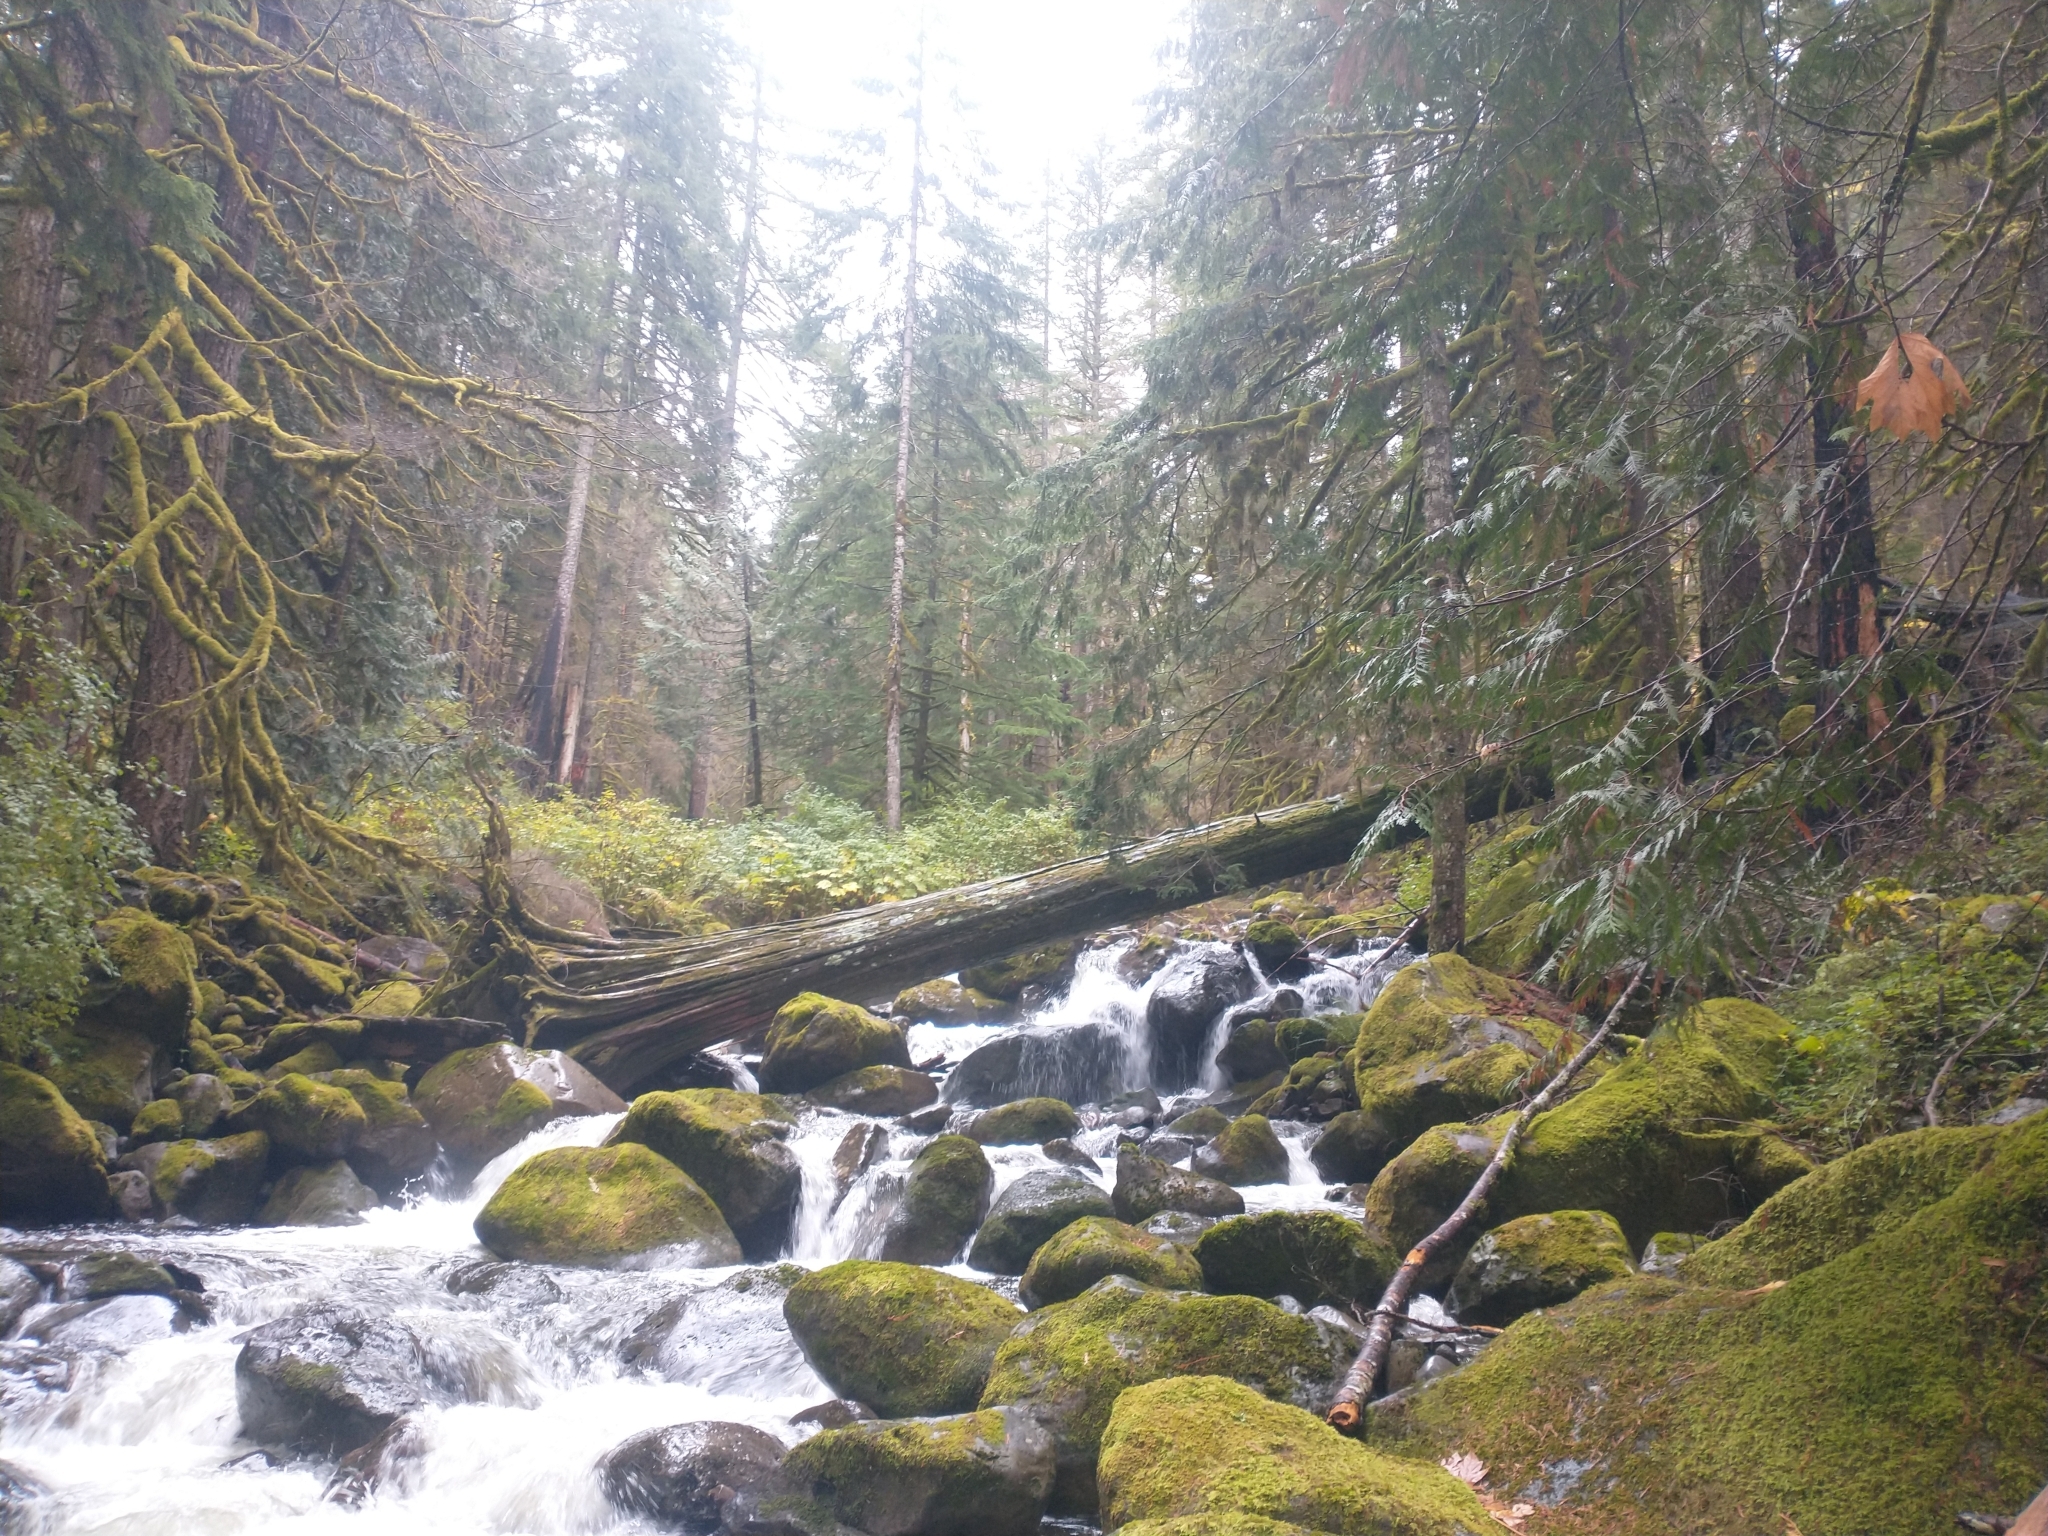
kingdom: Plantae
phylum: Tracheophyta
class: Pinopsida
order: Pinales
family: Cupressaceae
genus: Thuja
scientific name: Thuja plicata
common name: Western red-cedar
